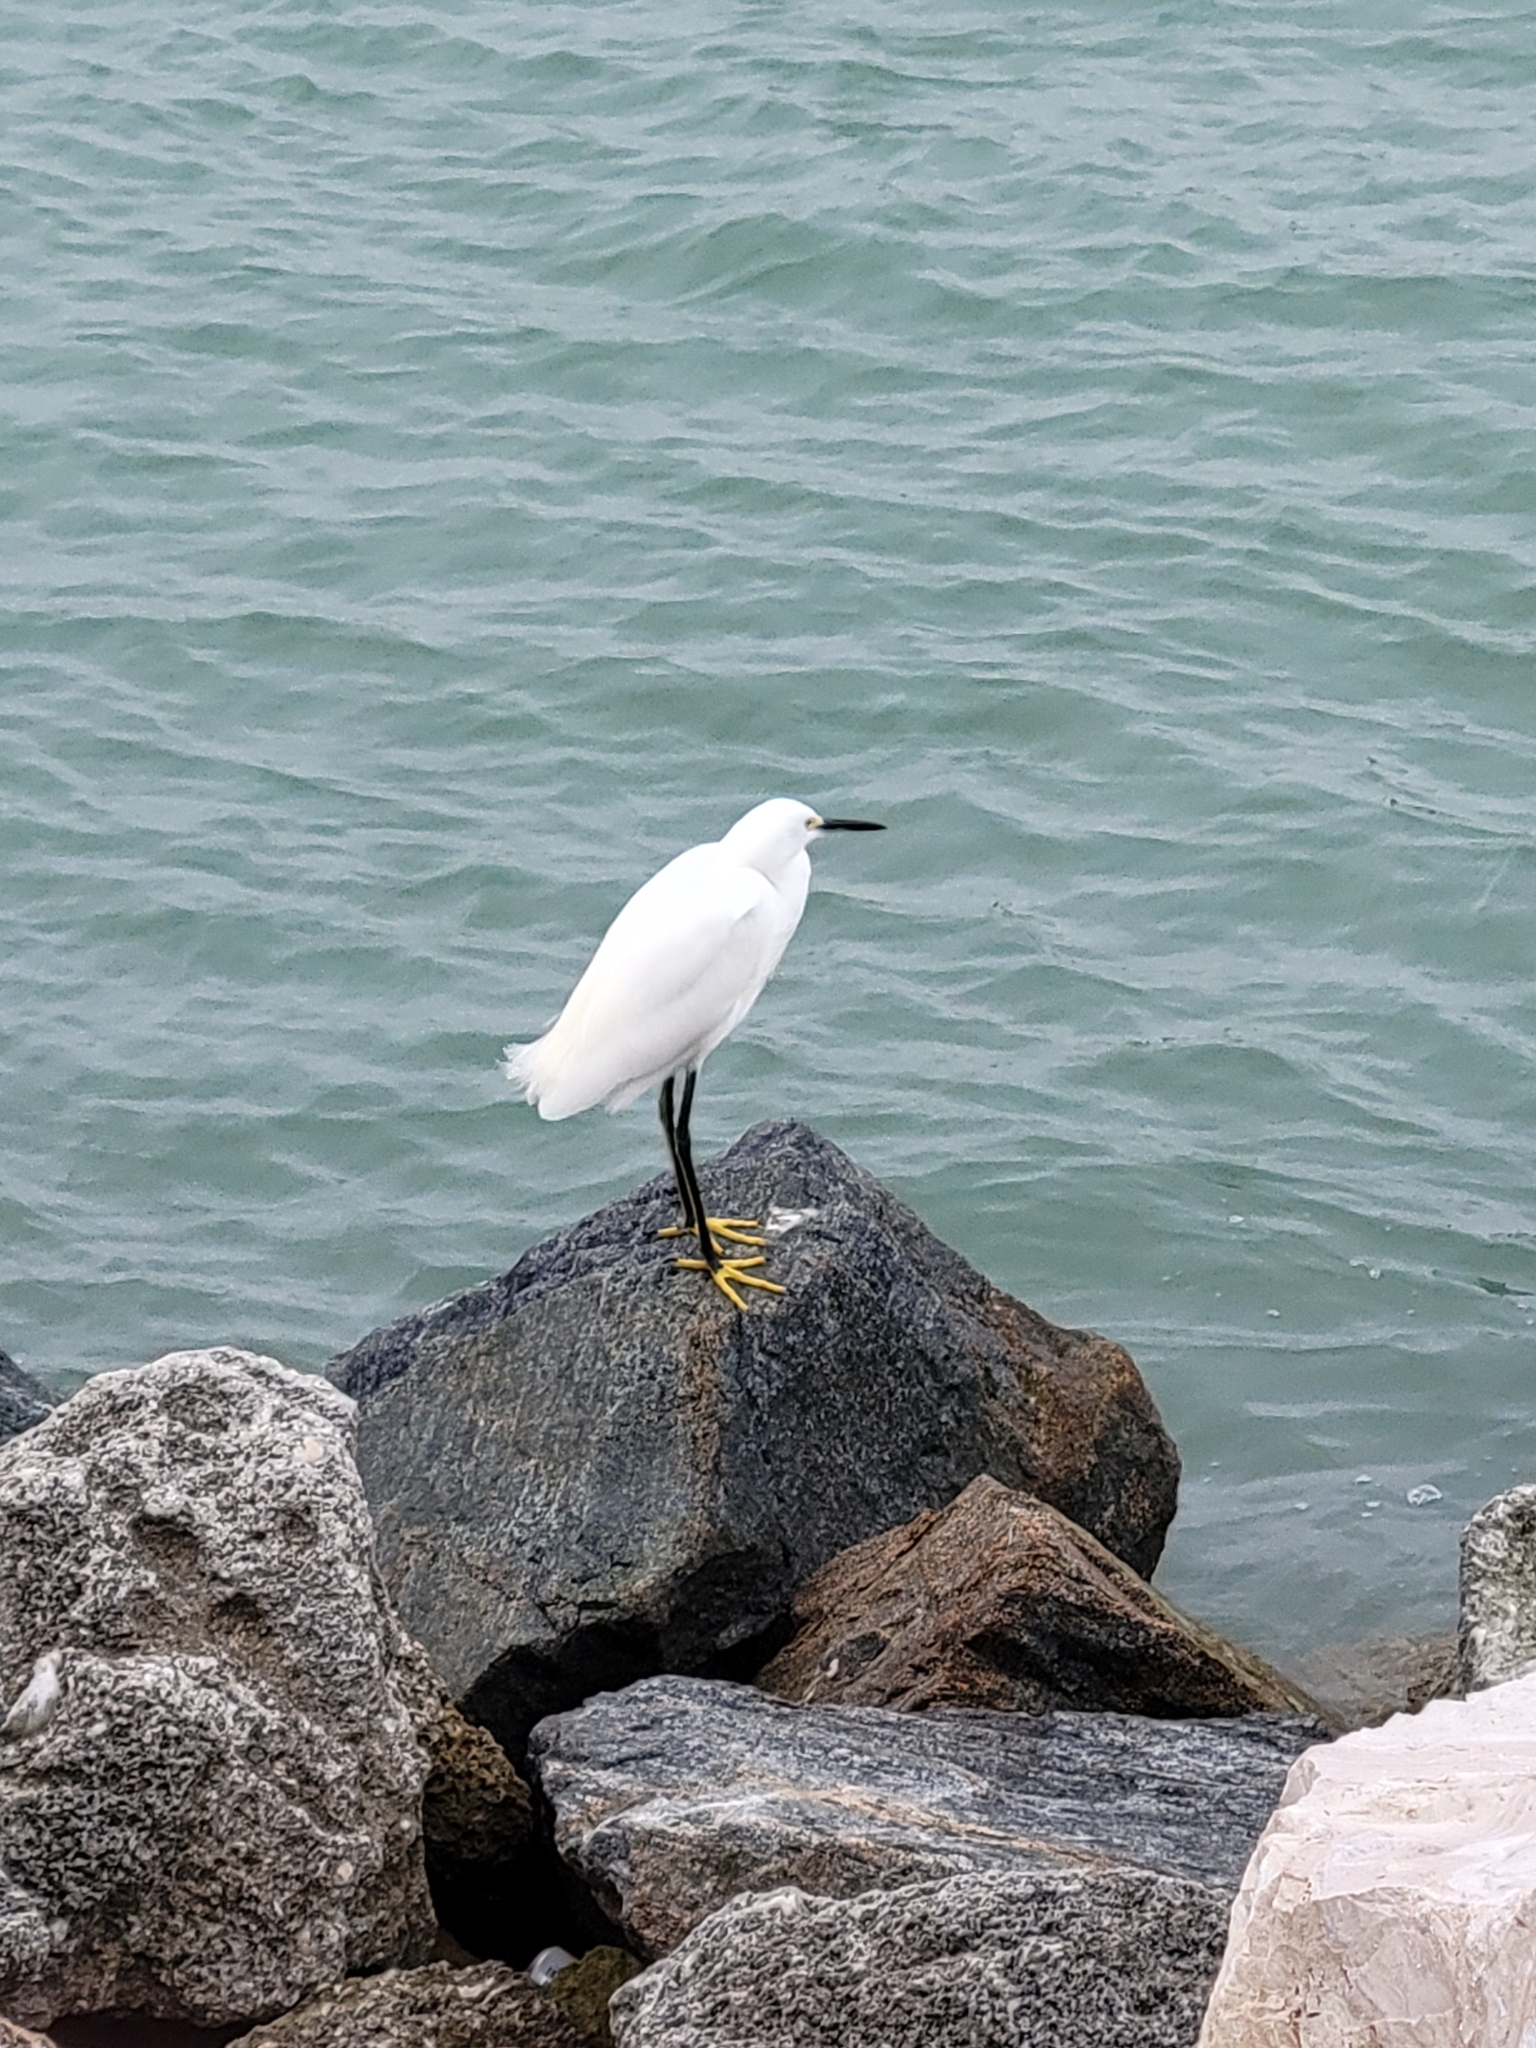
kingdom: Animalia
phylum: Chordata
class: Aves
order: Pelecaniformes
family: Ardeidae
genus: Egretta
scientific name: Egretta thula
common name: Snowy egret
